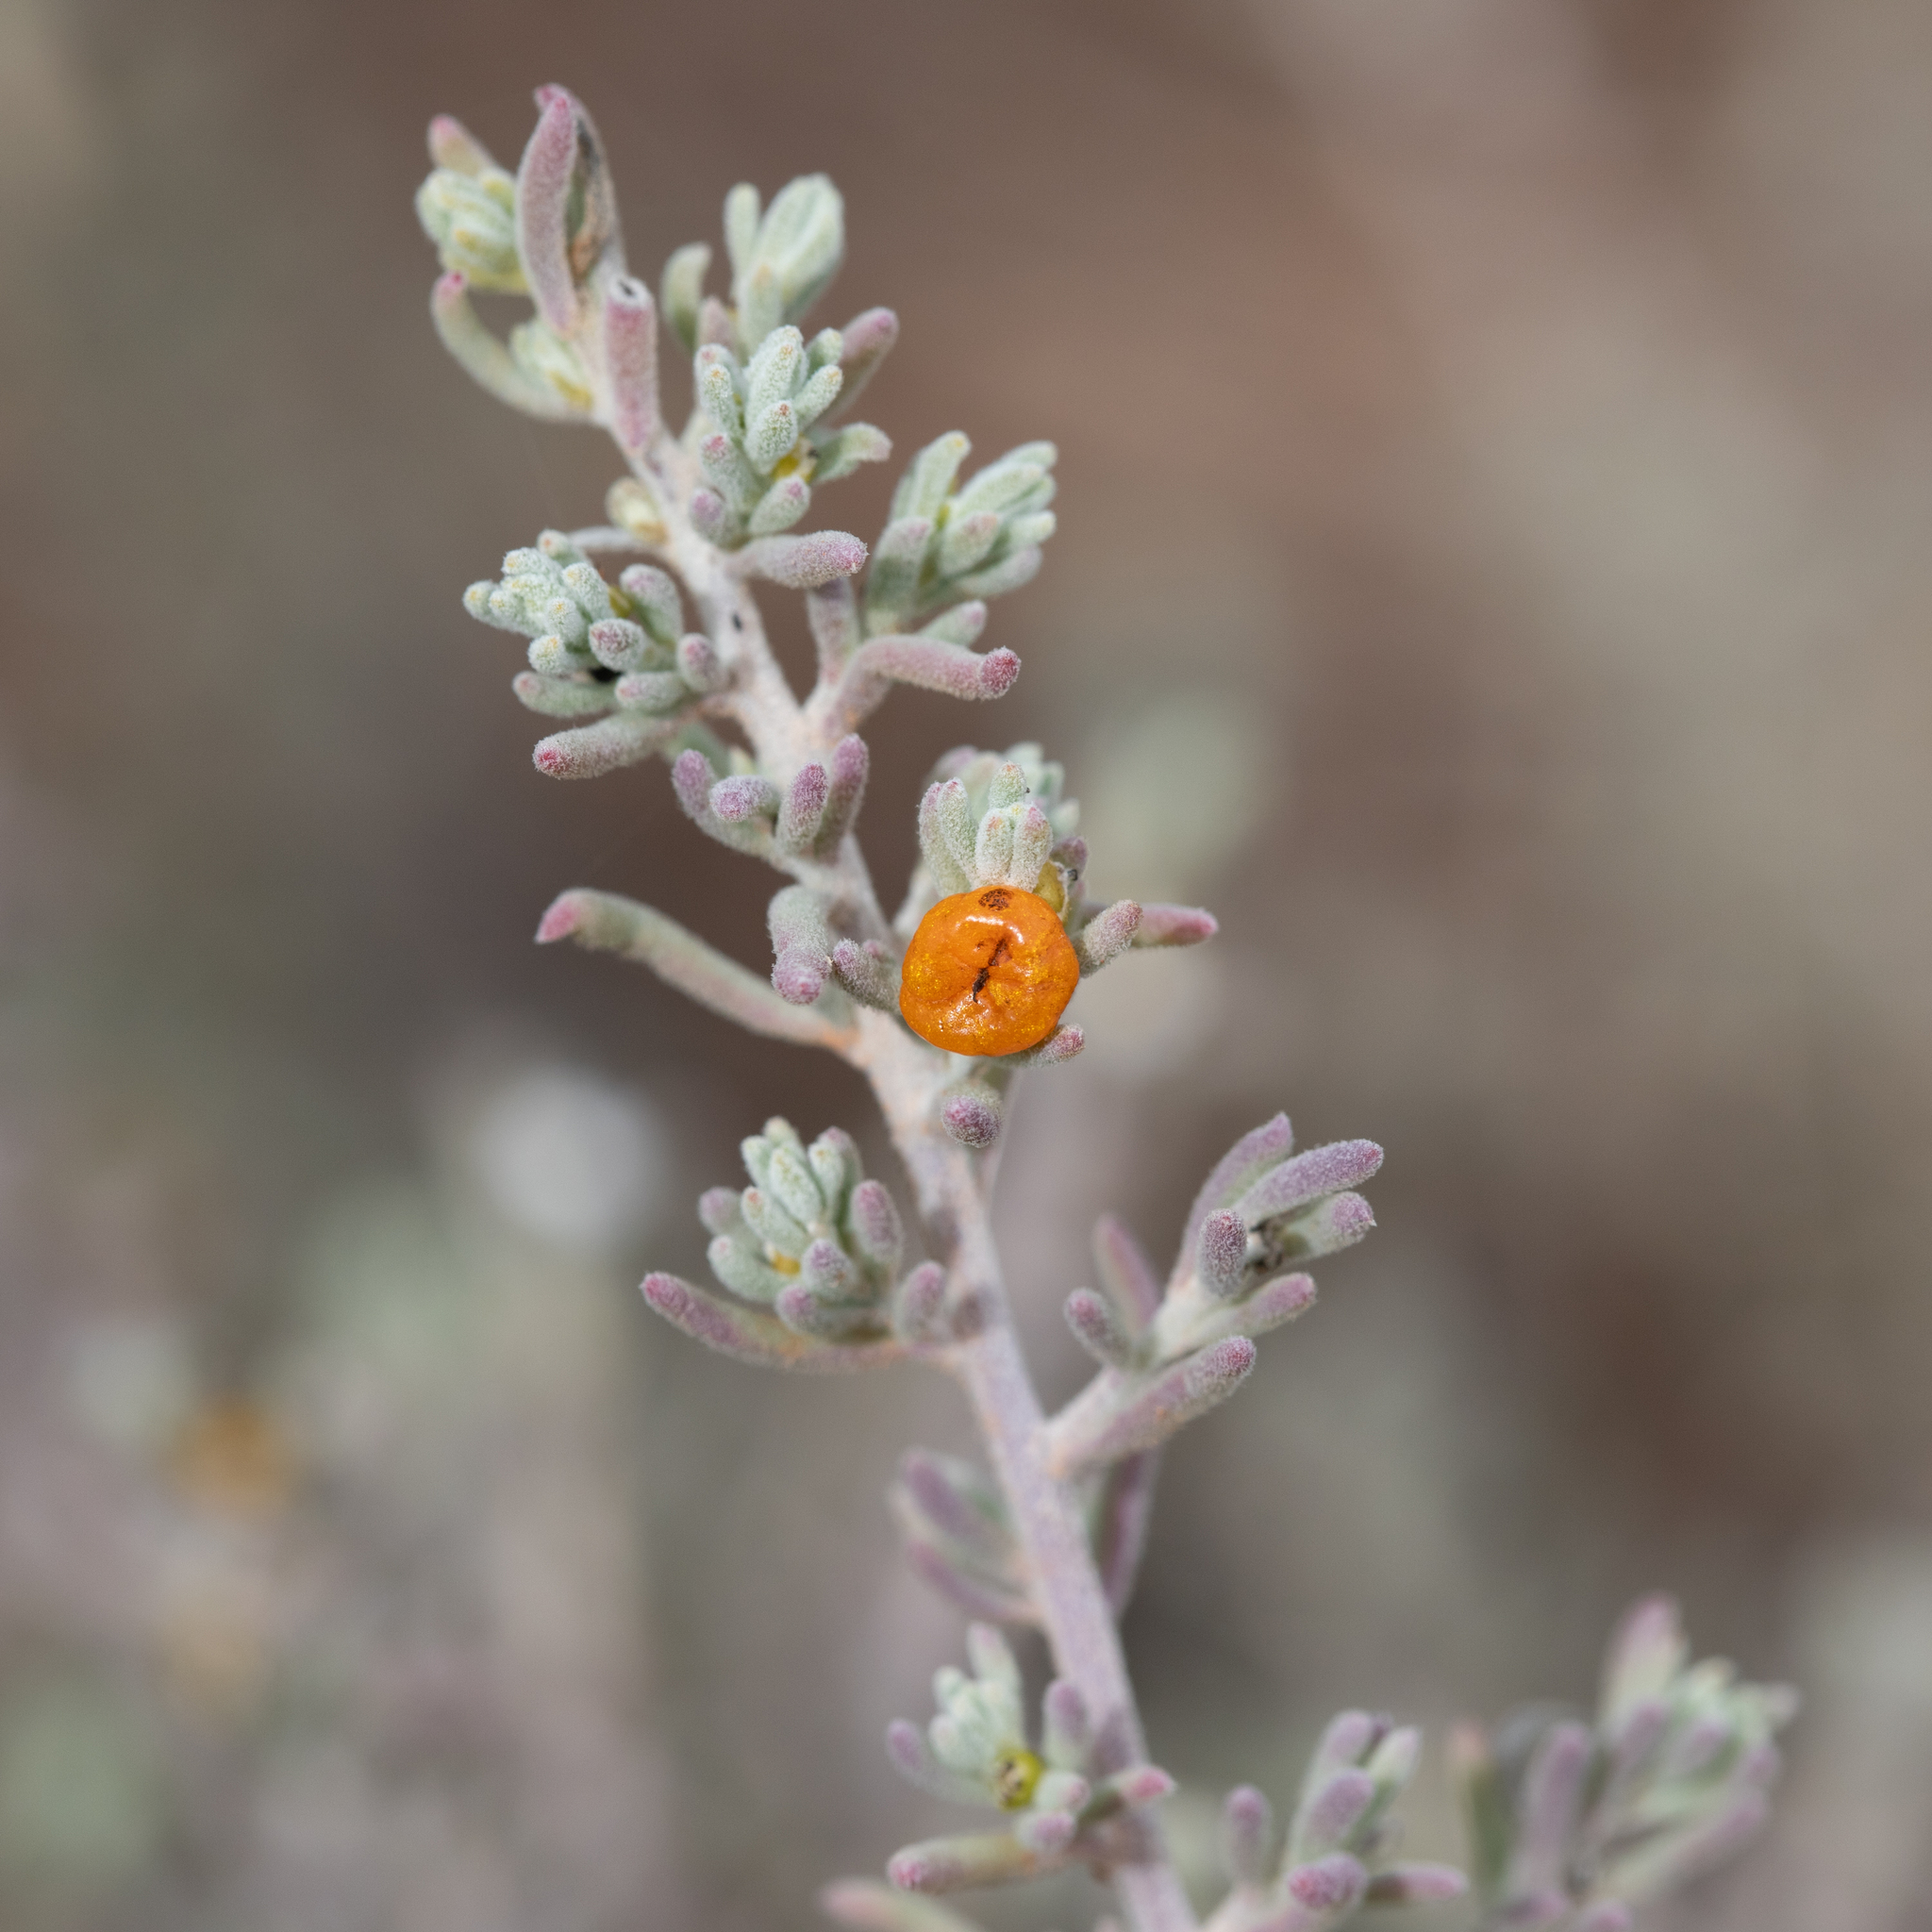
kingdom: Plantae
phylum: Tracheophyta
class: Magnoliopsida
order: Caryophyllales
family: Amaranthaceae
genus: Enchylaena
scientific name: Enchylaena tomentosa
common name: Ruby saltbush
